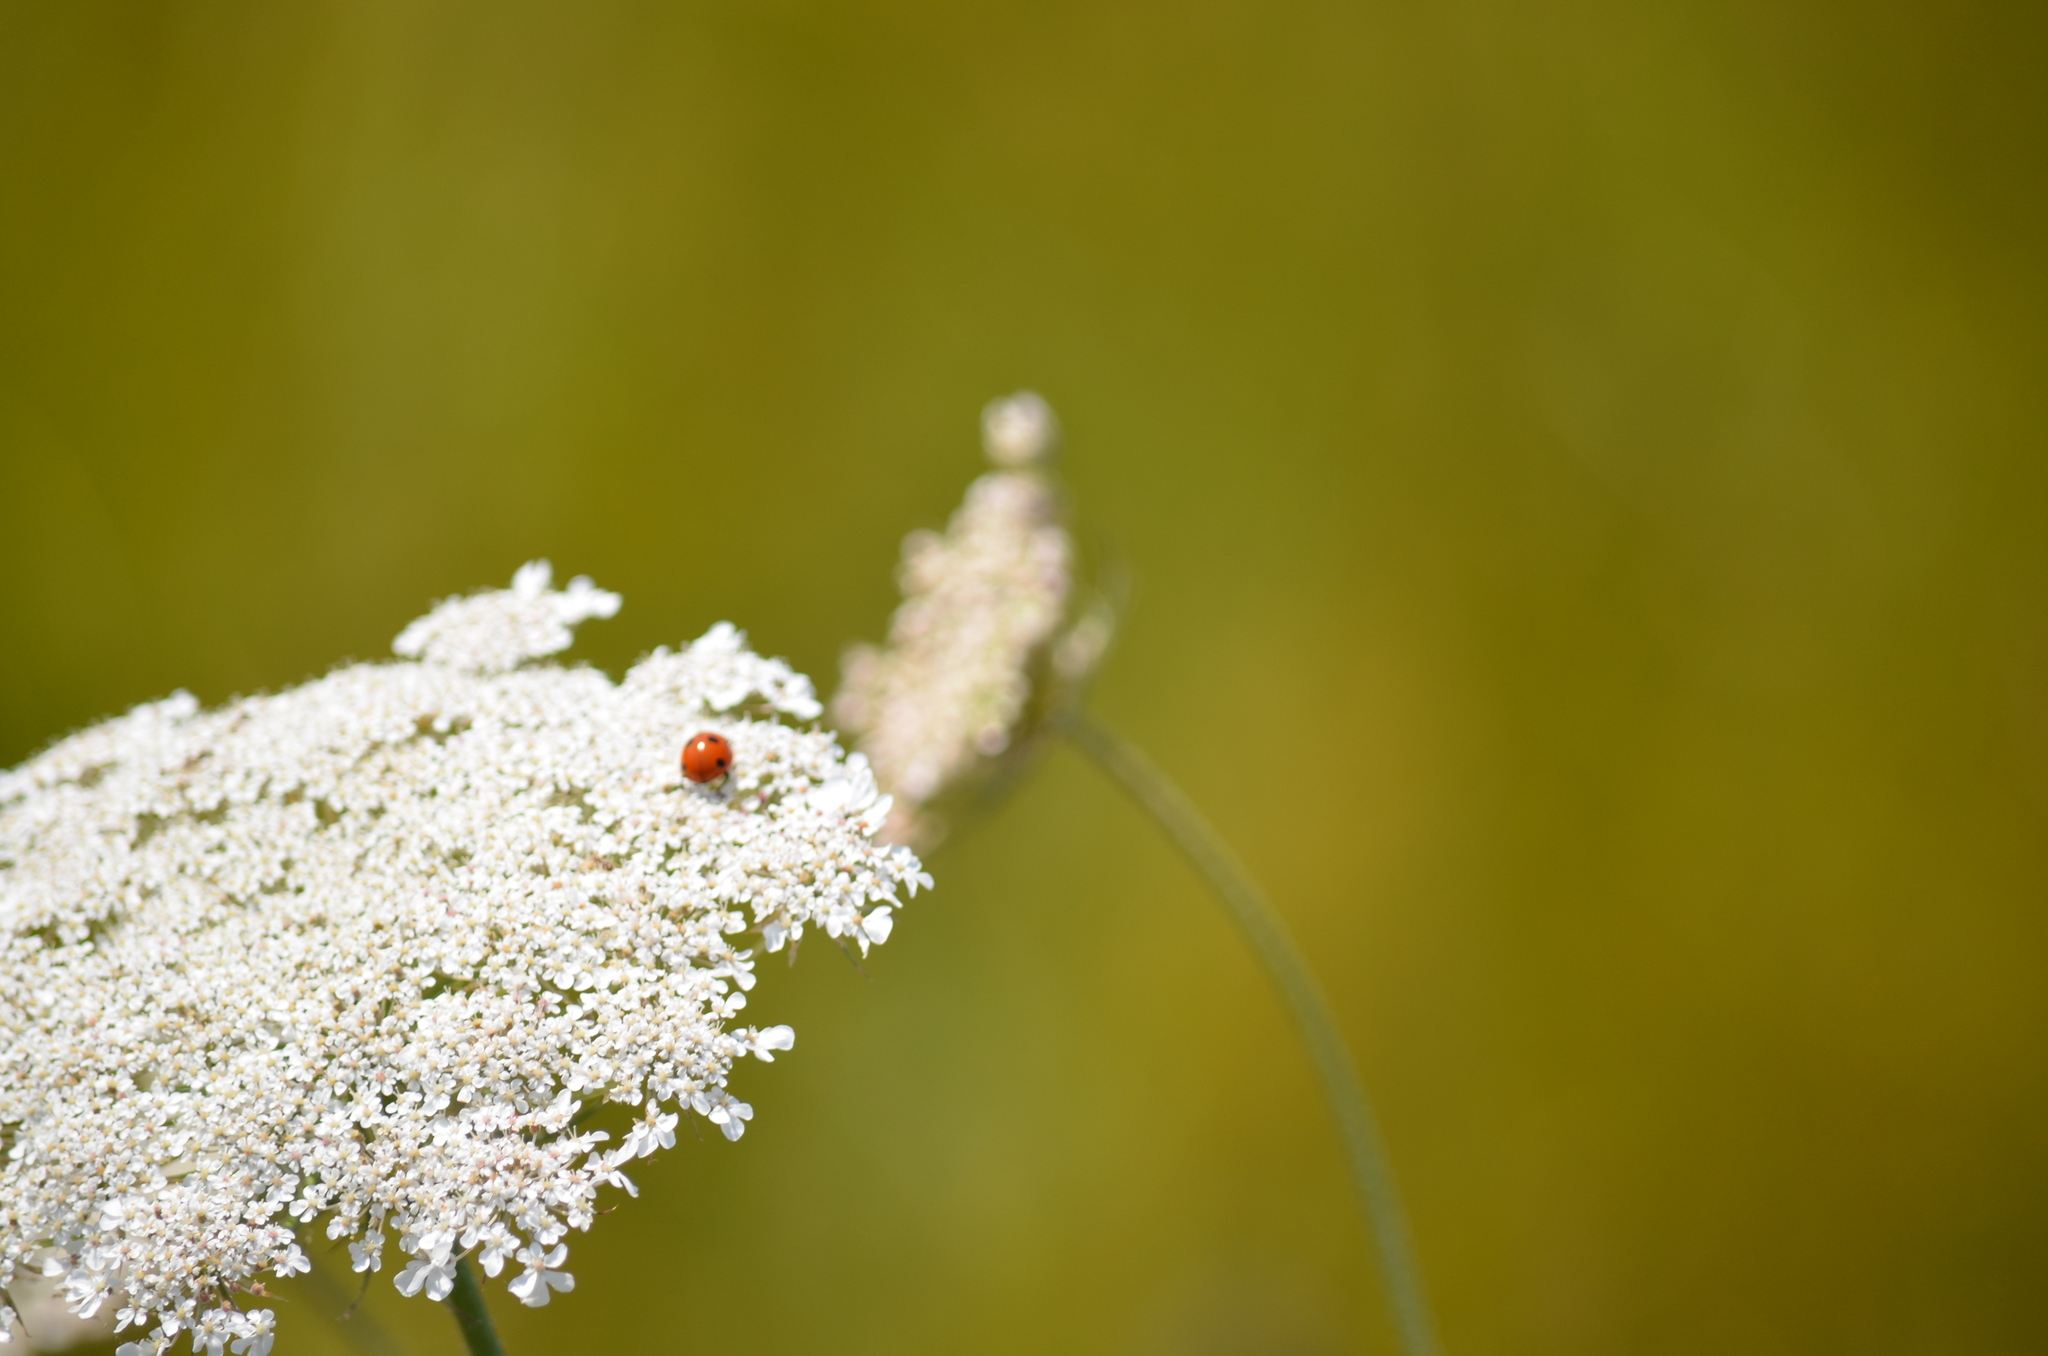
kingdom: Animalia
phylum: Arthropoda
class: Insecta
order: Coleoptera
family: Coccinellidae
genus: Coccinella
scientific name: Coccinella septempunctata
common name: Sevenspotted lady beetle
